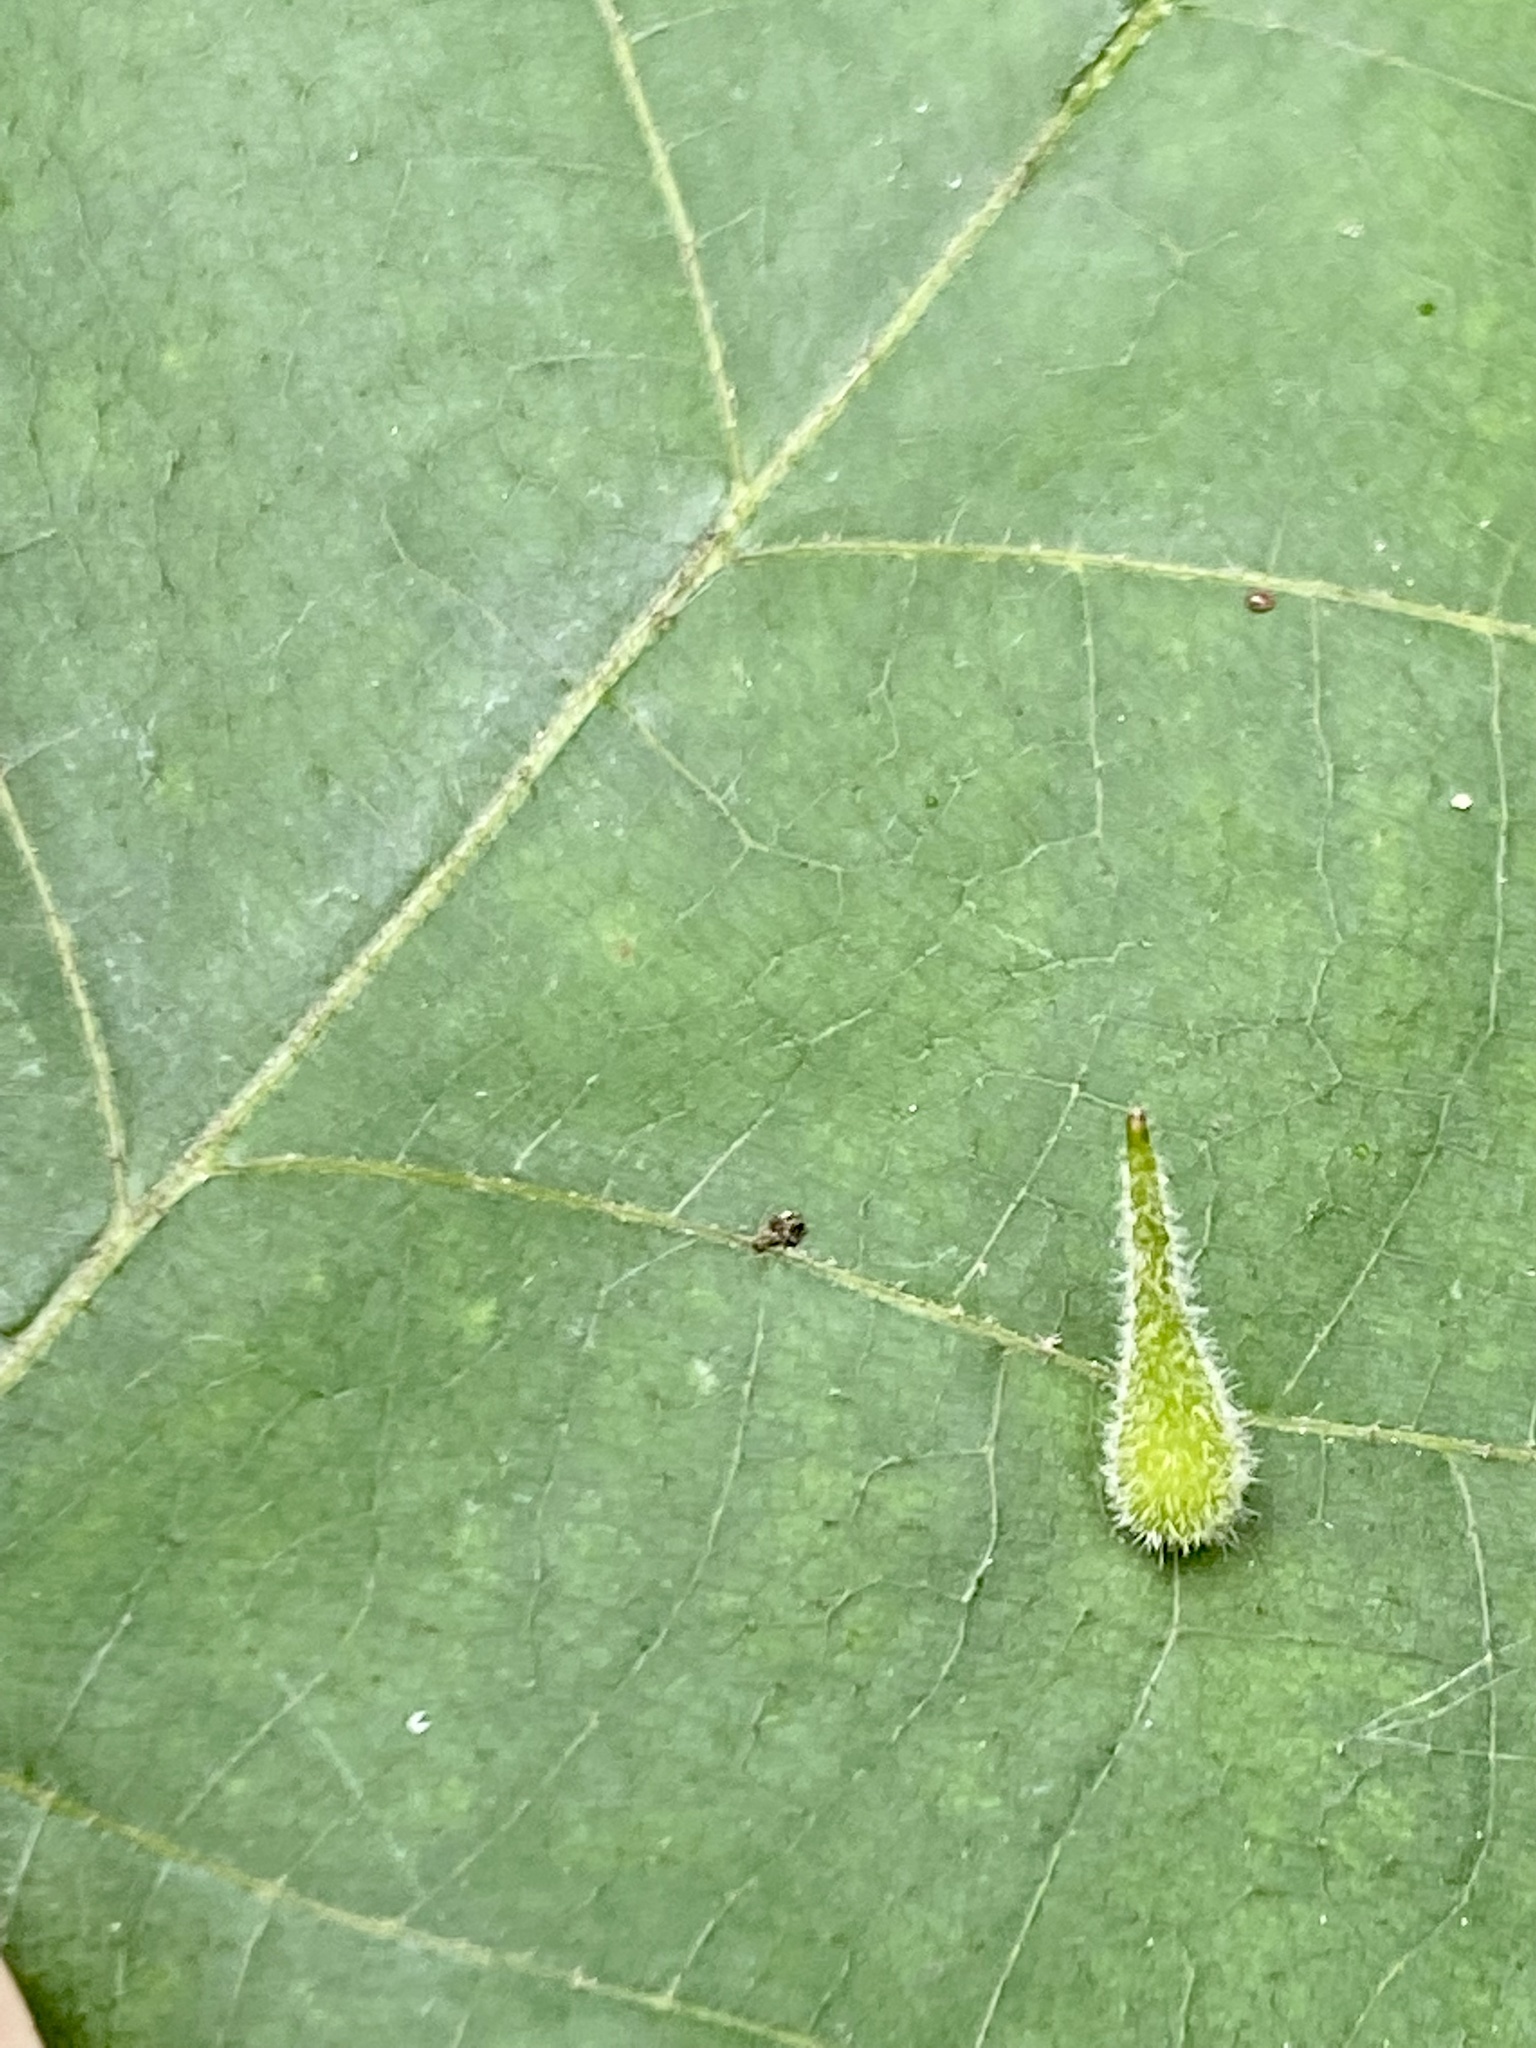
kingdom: Animalia
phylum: Arthropoda
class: Insecta
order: Diptera
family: Cecidomyiidae
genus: Caryomyia
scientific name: Caryomyia spinulosa
